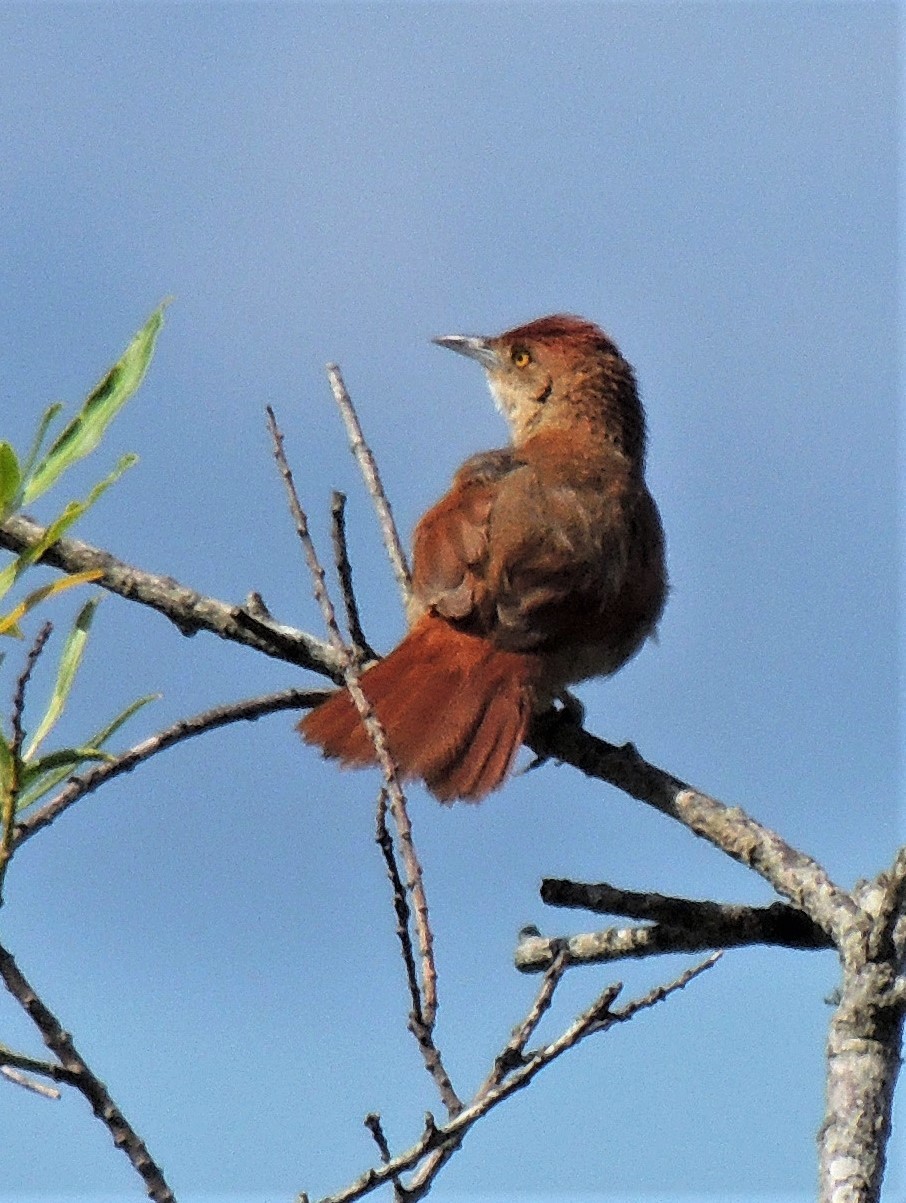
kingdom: Animalia
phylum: Chordata
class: Aves
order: Passeriformes
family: Furnariidae
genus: Phacellodomus
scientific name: Phacellodomus ruber
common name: Greater thornbird
